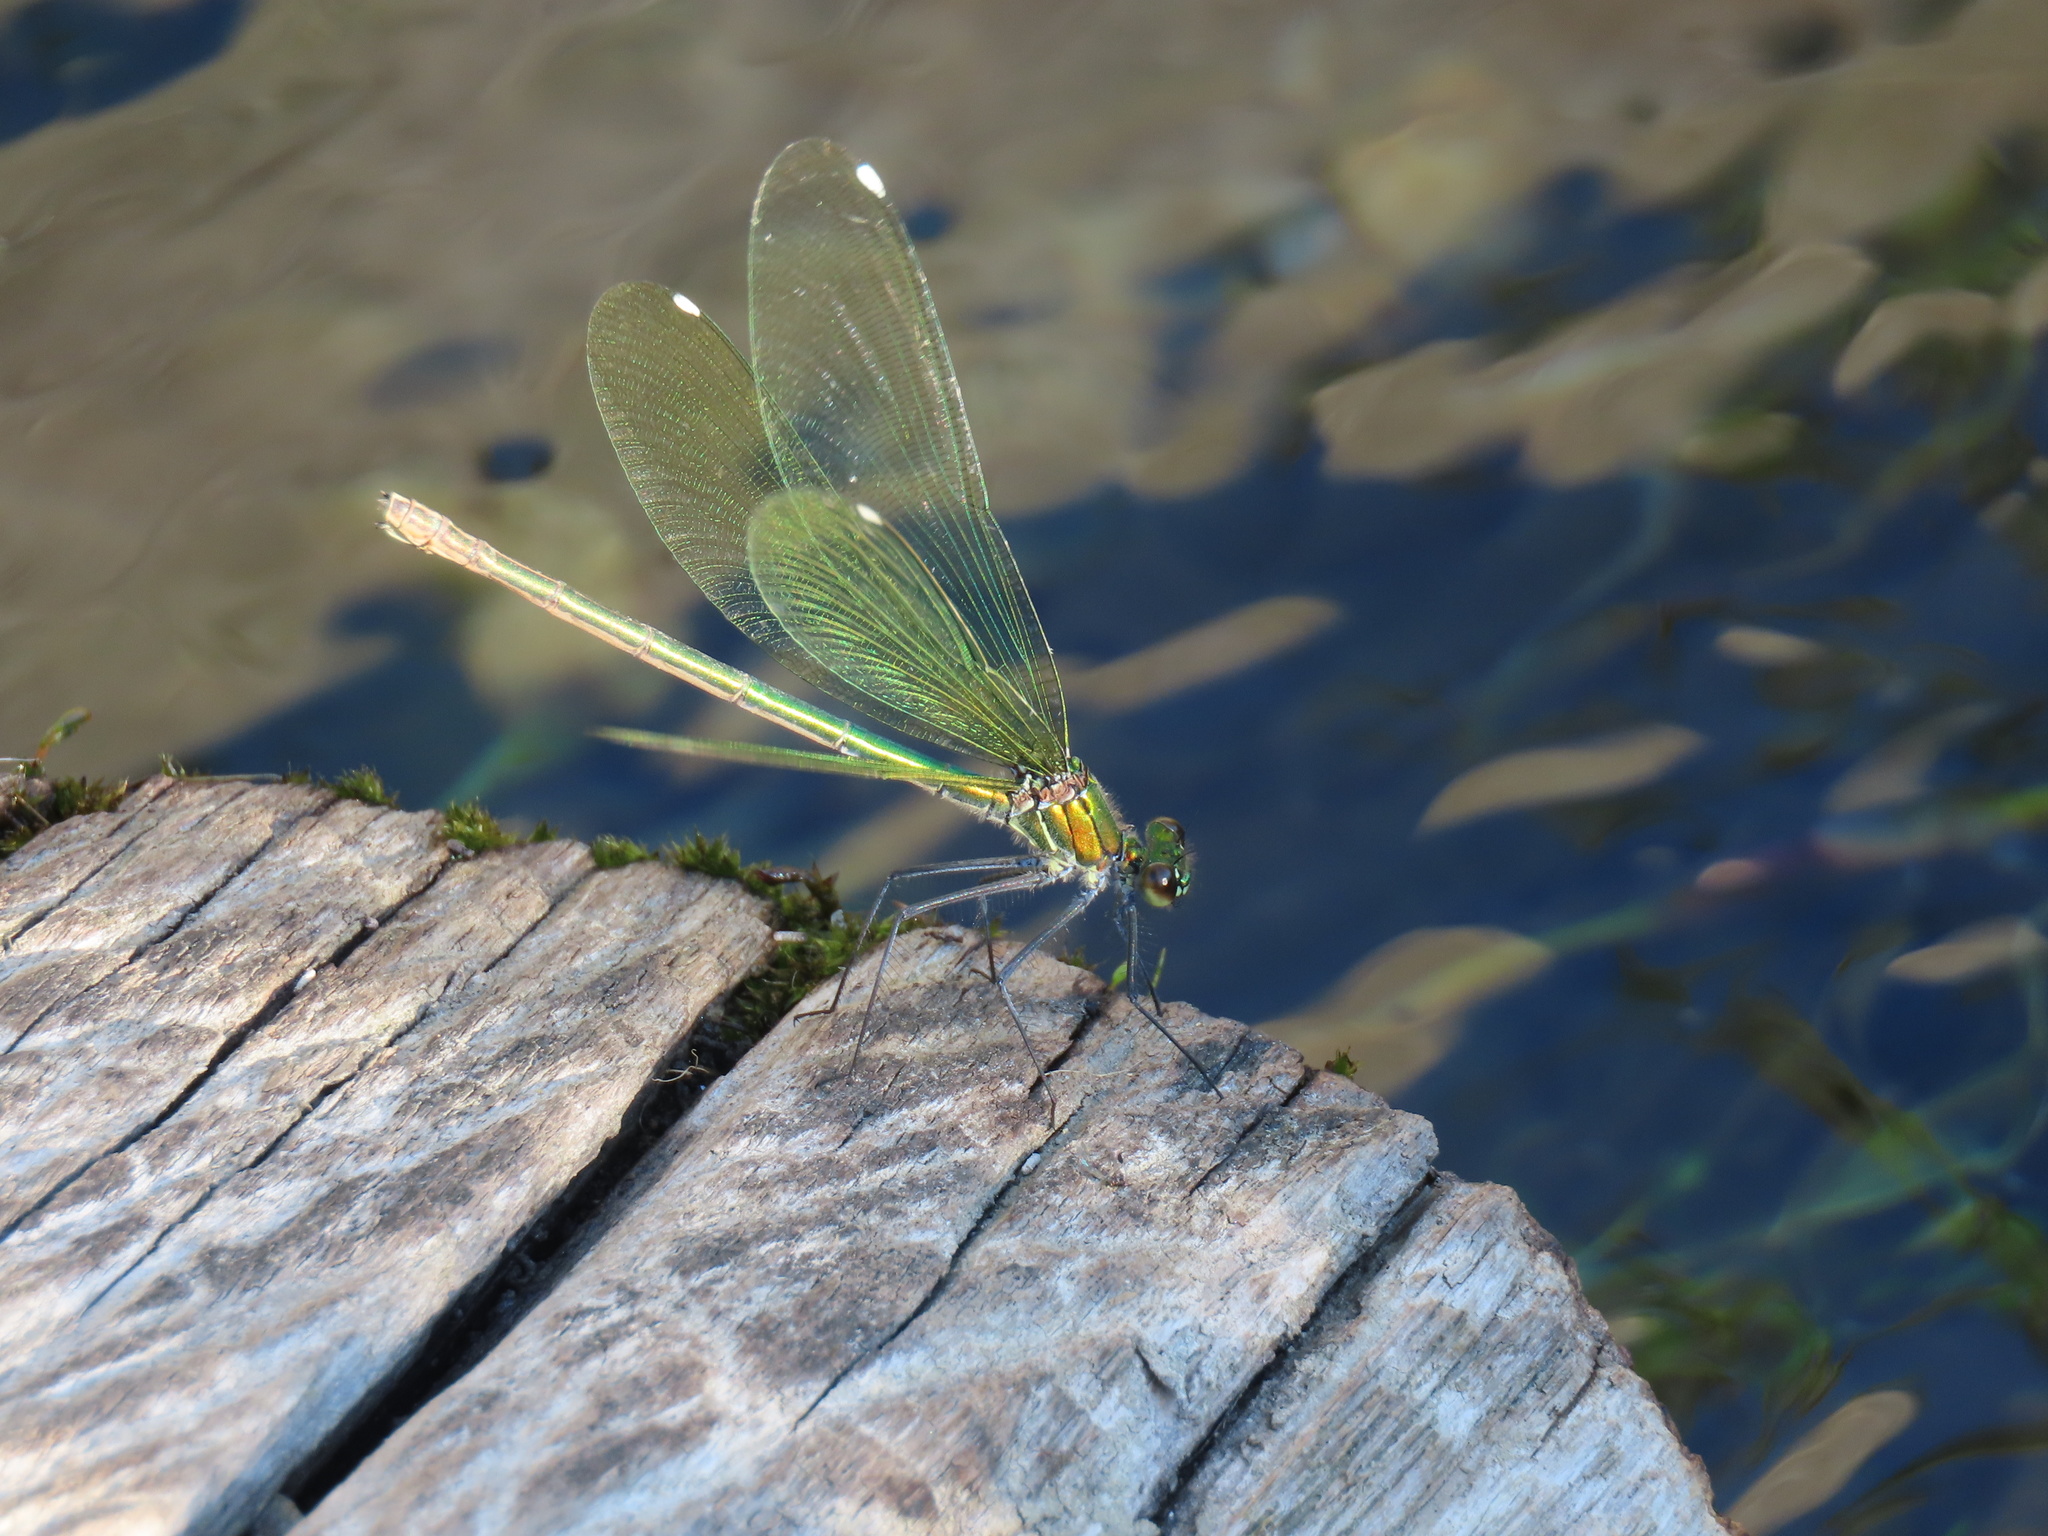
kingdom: Animalia
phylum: Arthropoda
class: Insecta
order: Odonata
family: Calopterygidae
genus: Calopteryx
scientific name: Calopteryx splendens
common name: Banded demoiselle
